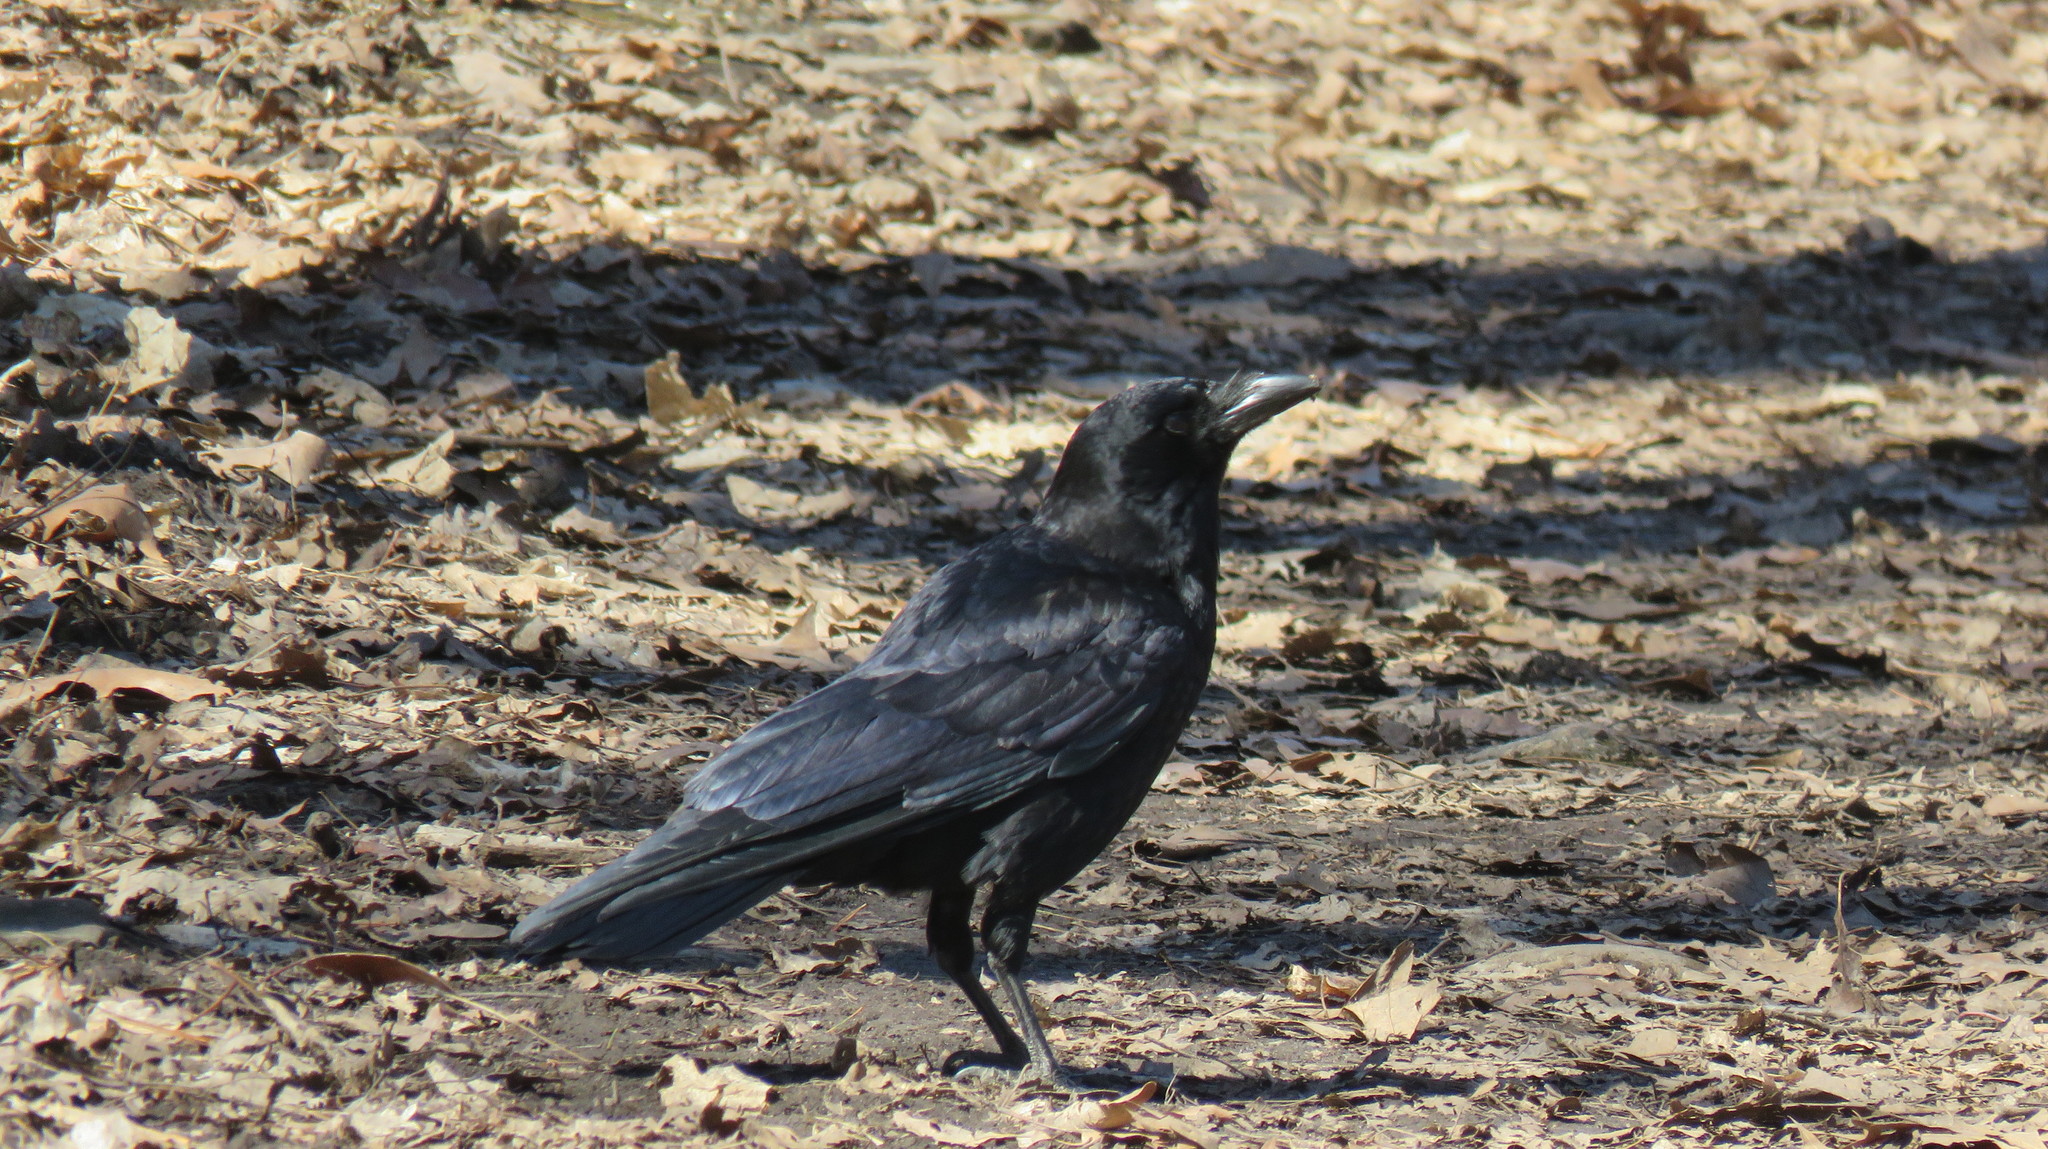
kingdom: Animalia
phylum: Chordata
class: Aves
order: Passeriformes
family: Corvidae
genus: Corvus
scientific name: Corvus brachyrhynchos
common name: American crow
